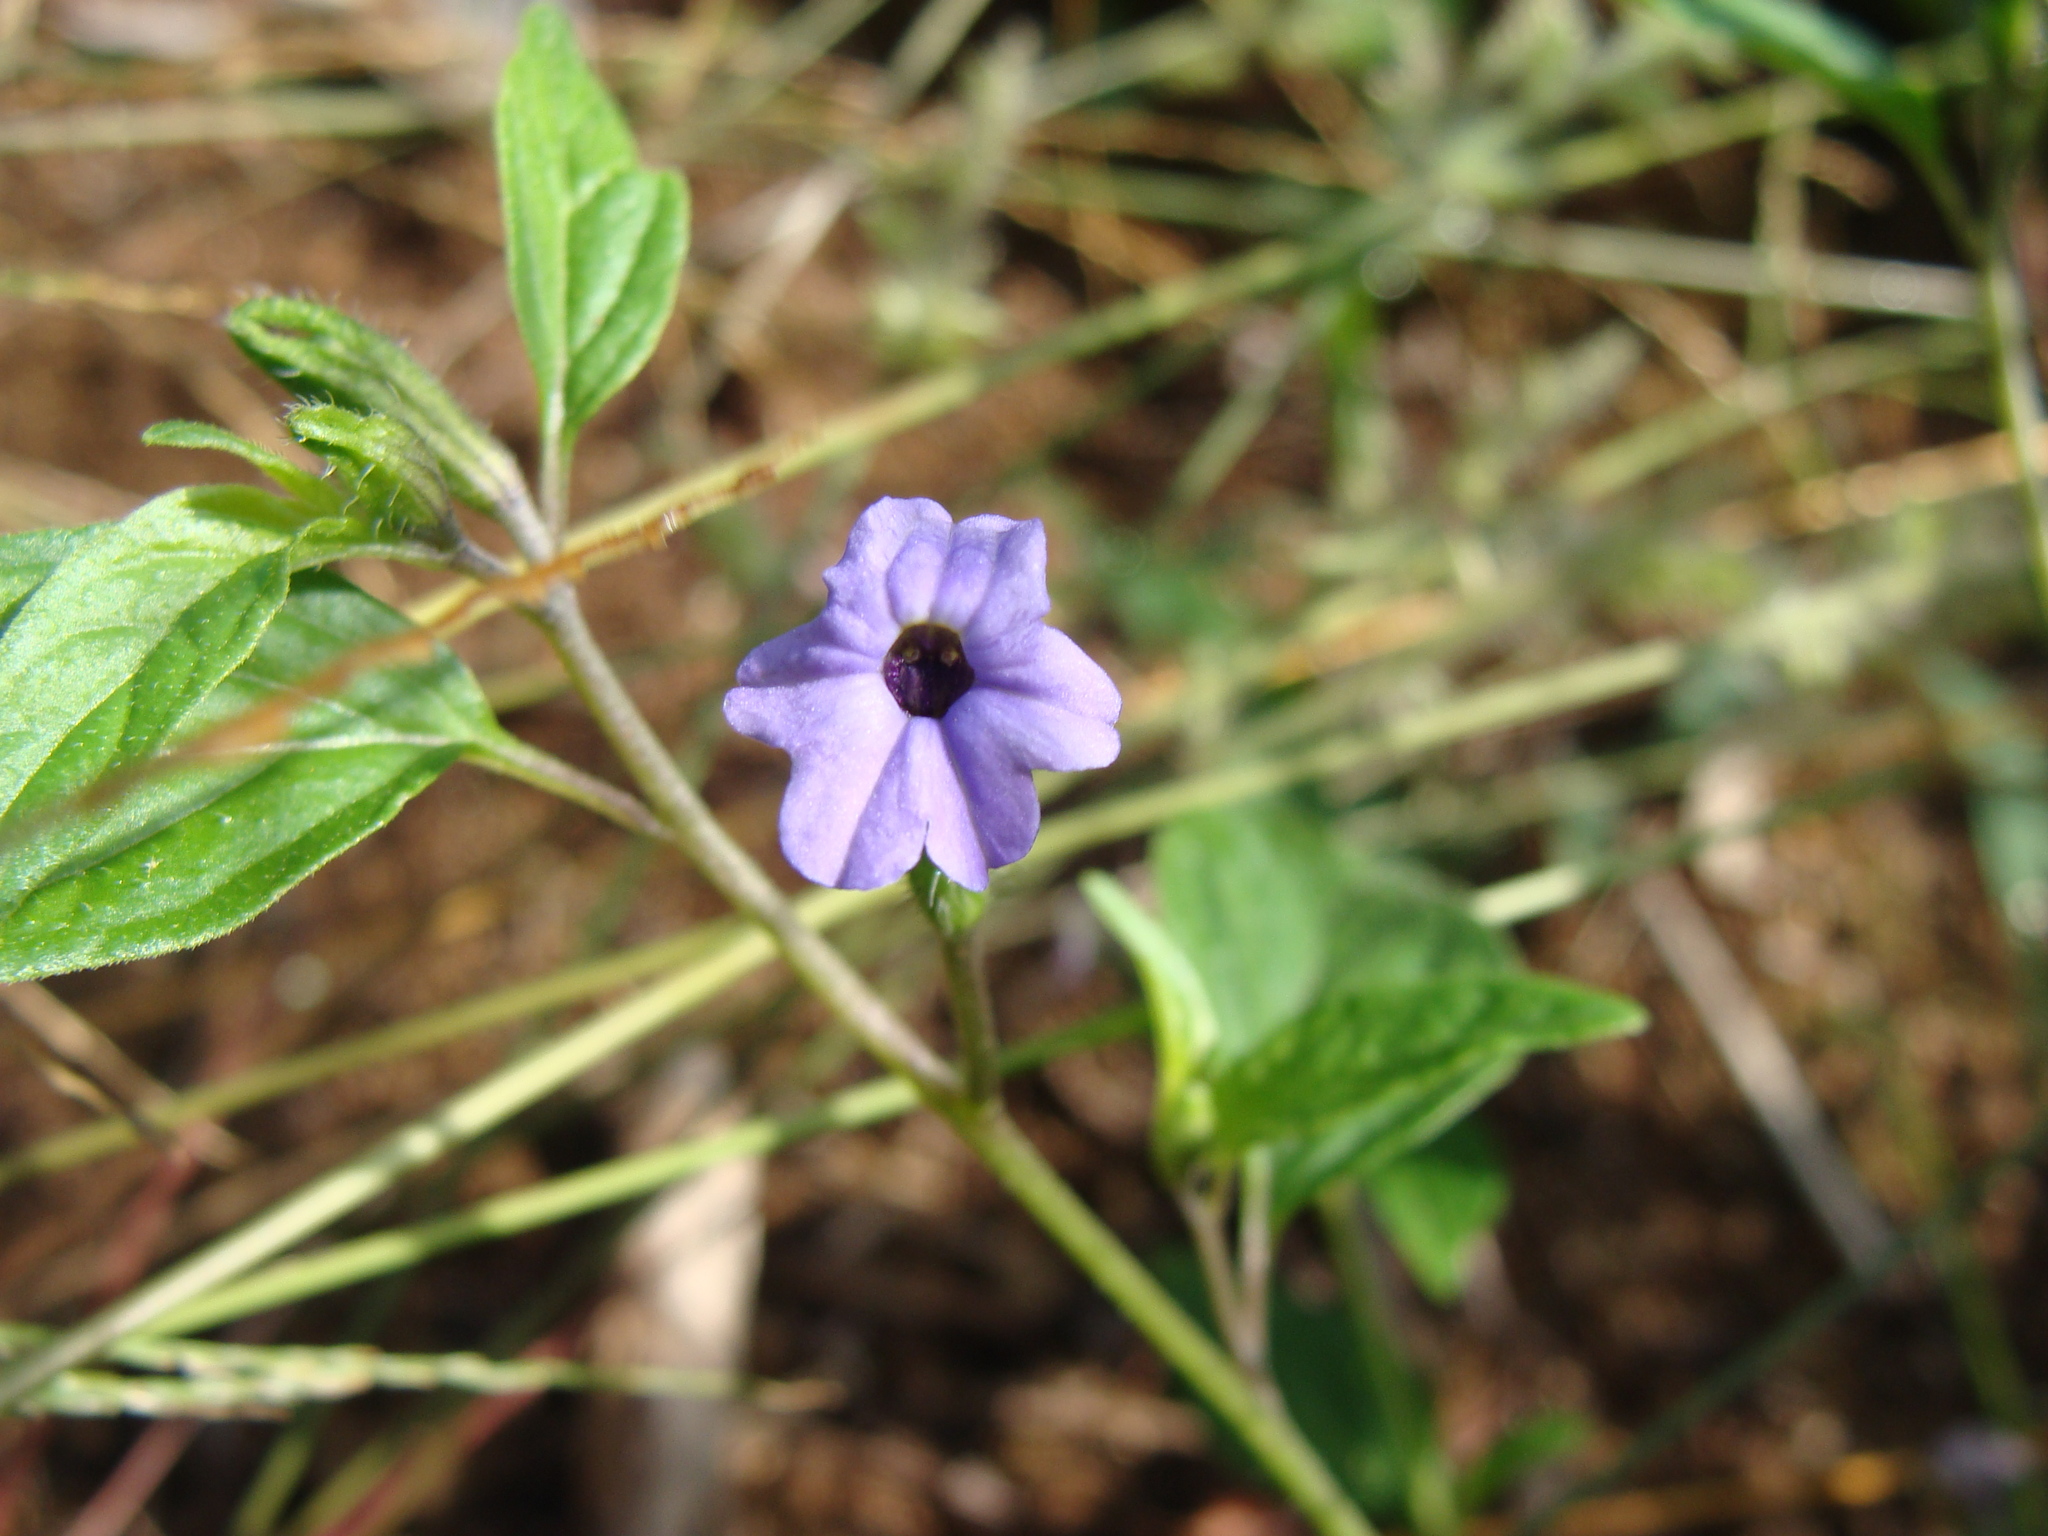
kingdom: Plantae
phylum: Tracheophyta
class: Magnoliopsida
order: Solanales
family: Solanaceae
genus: Browallia
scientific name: Browallia americana
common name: Jamaican forget-me-not
